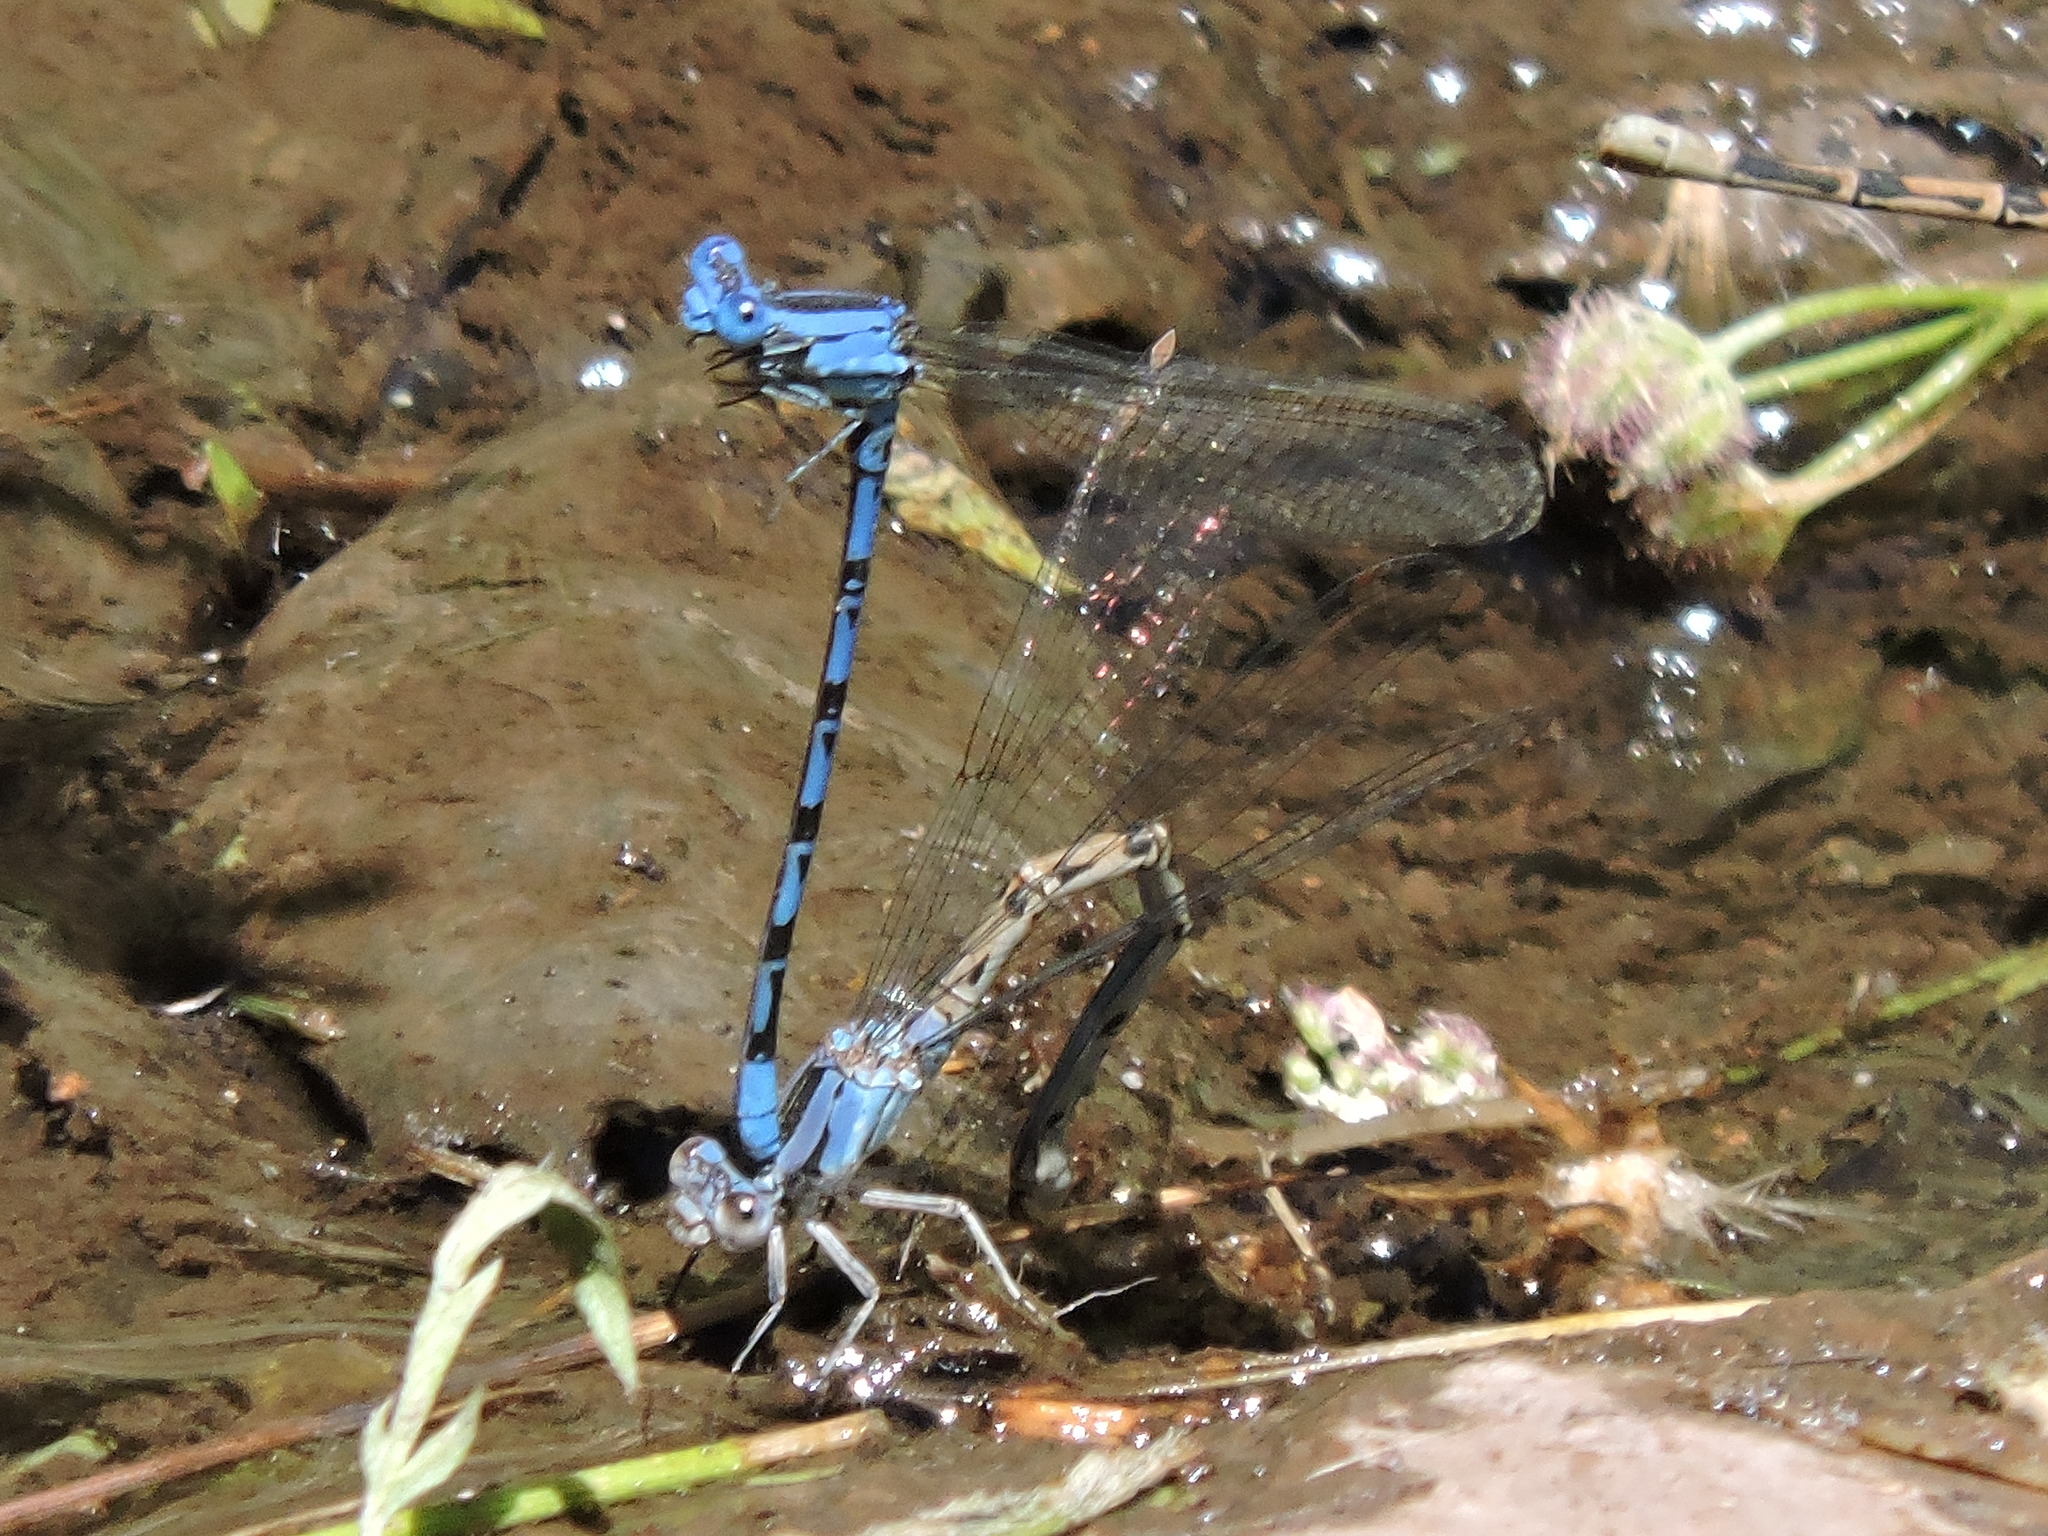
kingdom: Animalia
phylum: Arthropoda
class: Insecta
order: Odonata
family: Coenagrionidae
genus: Argia
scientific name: Argia vivida
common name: Vivid dancer
